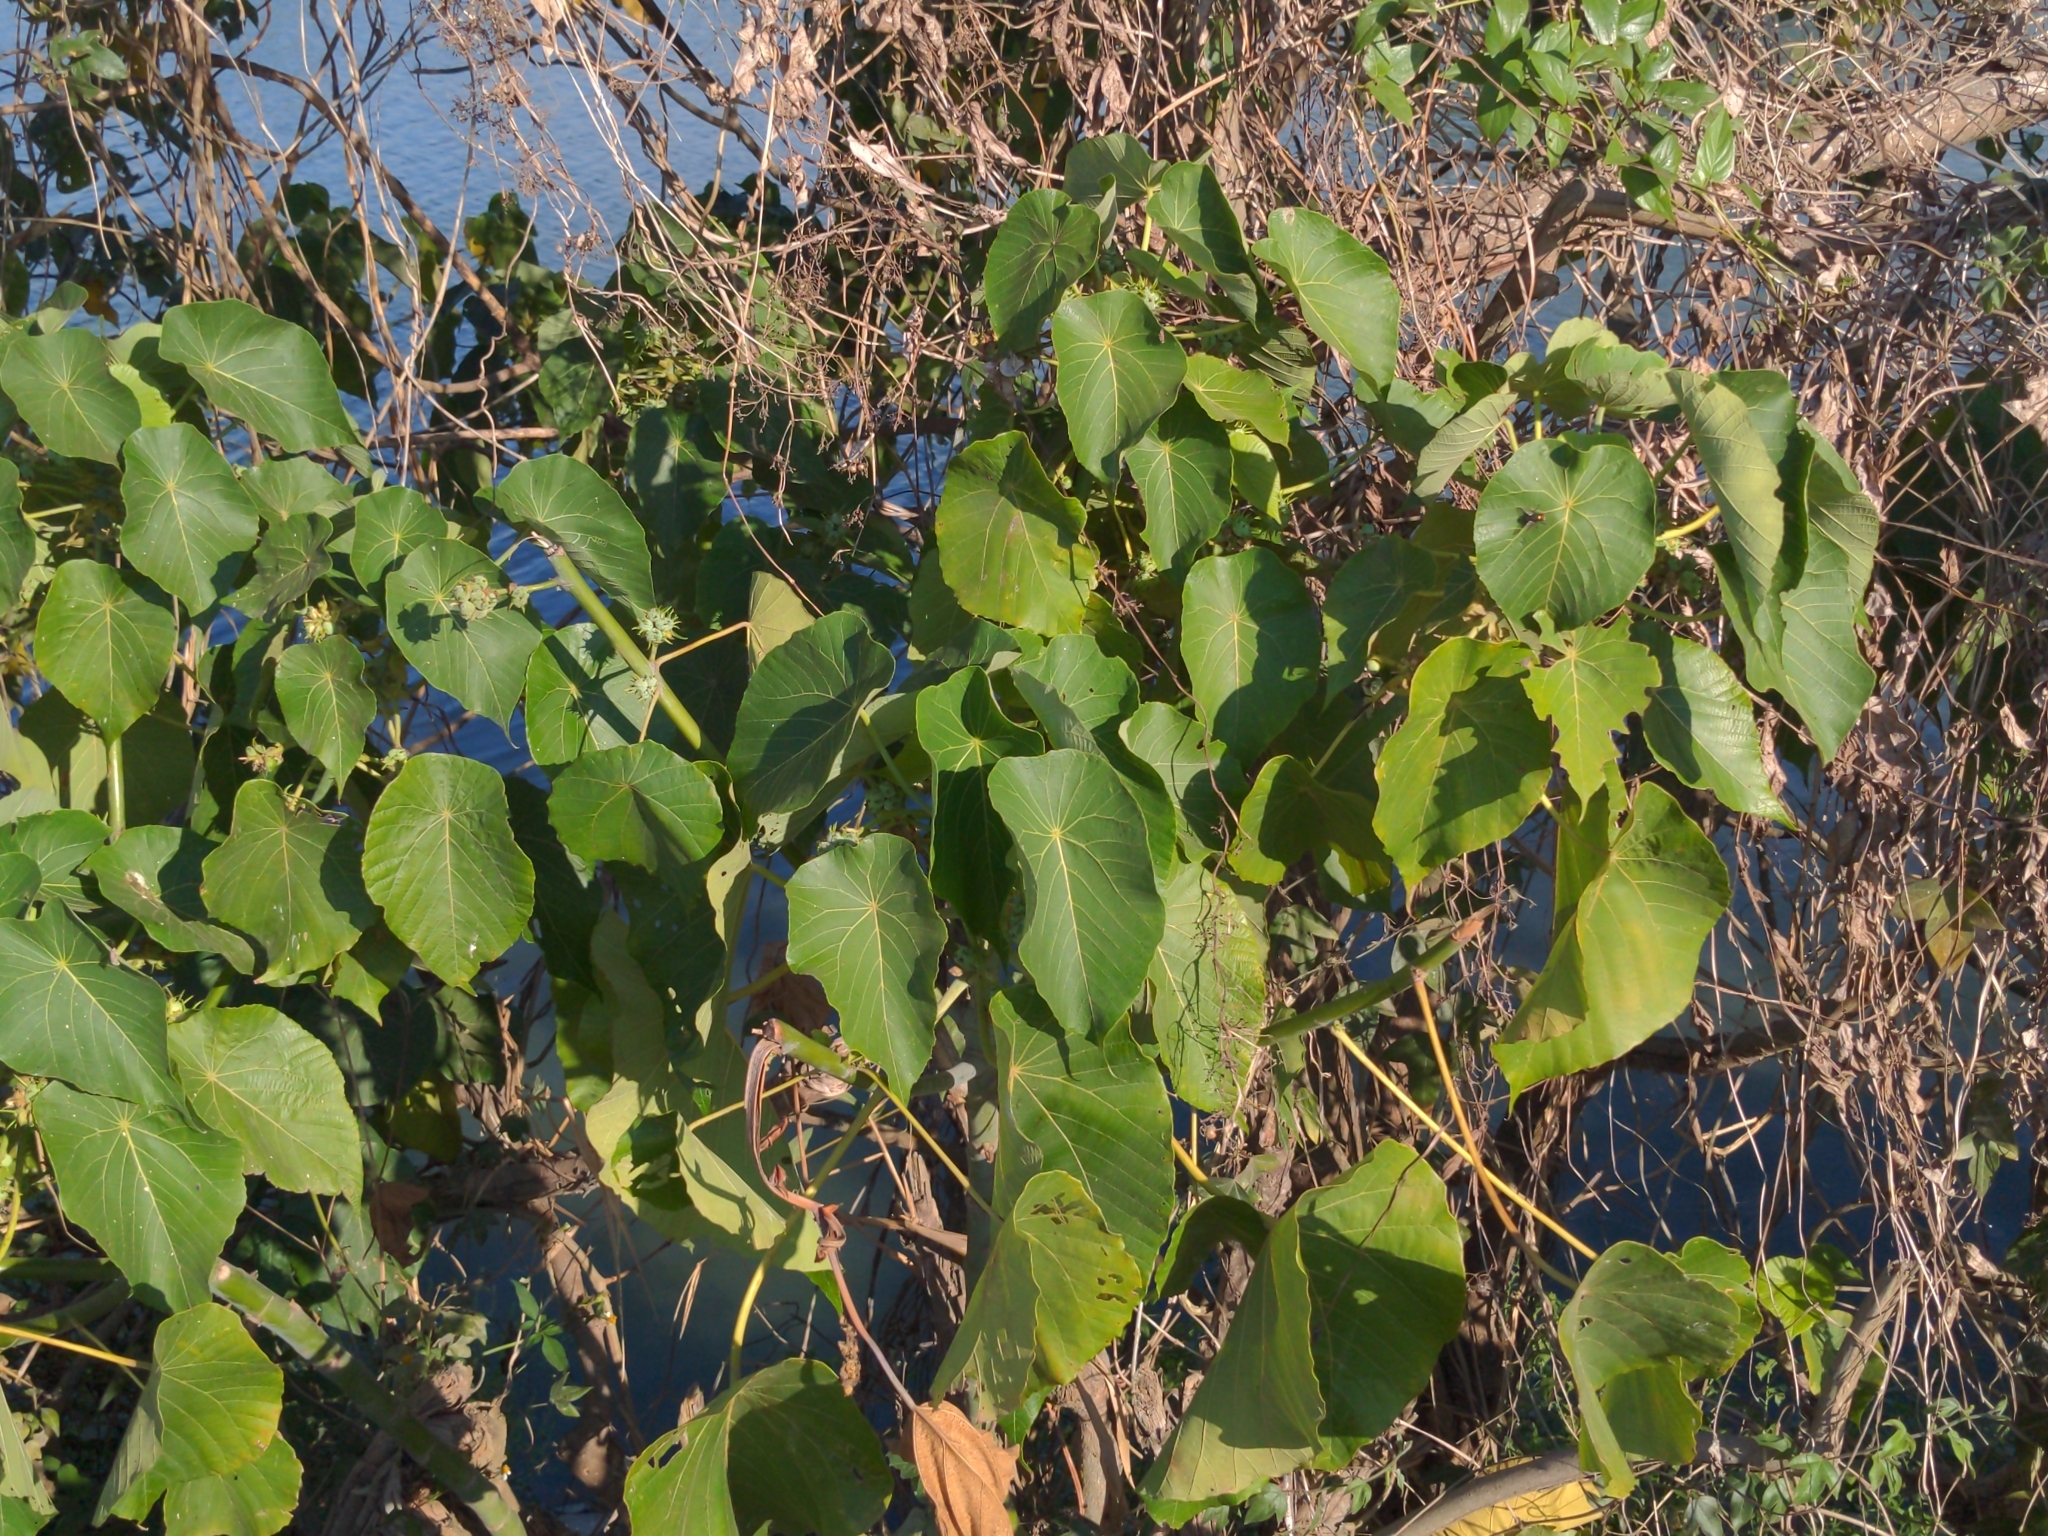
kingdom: Plantae
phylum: Tracheophyta
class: Magnoliopsida
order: Malpighiales
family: Euphorbiaceae
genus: Macaranga
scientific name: Macaranga tanarius
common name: Parasol leaf tree
